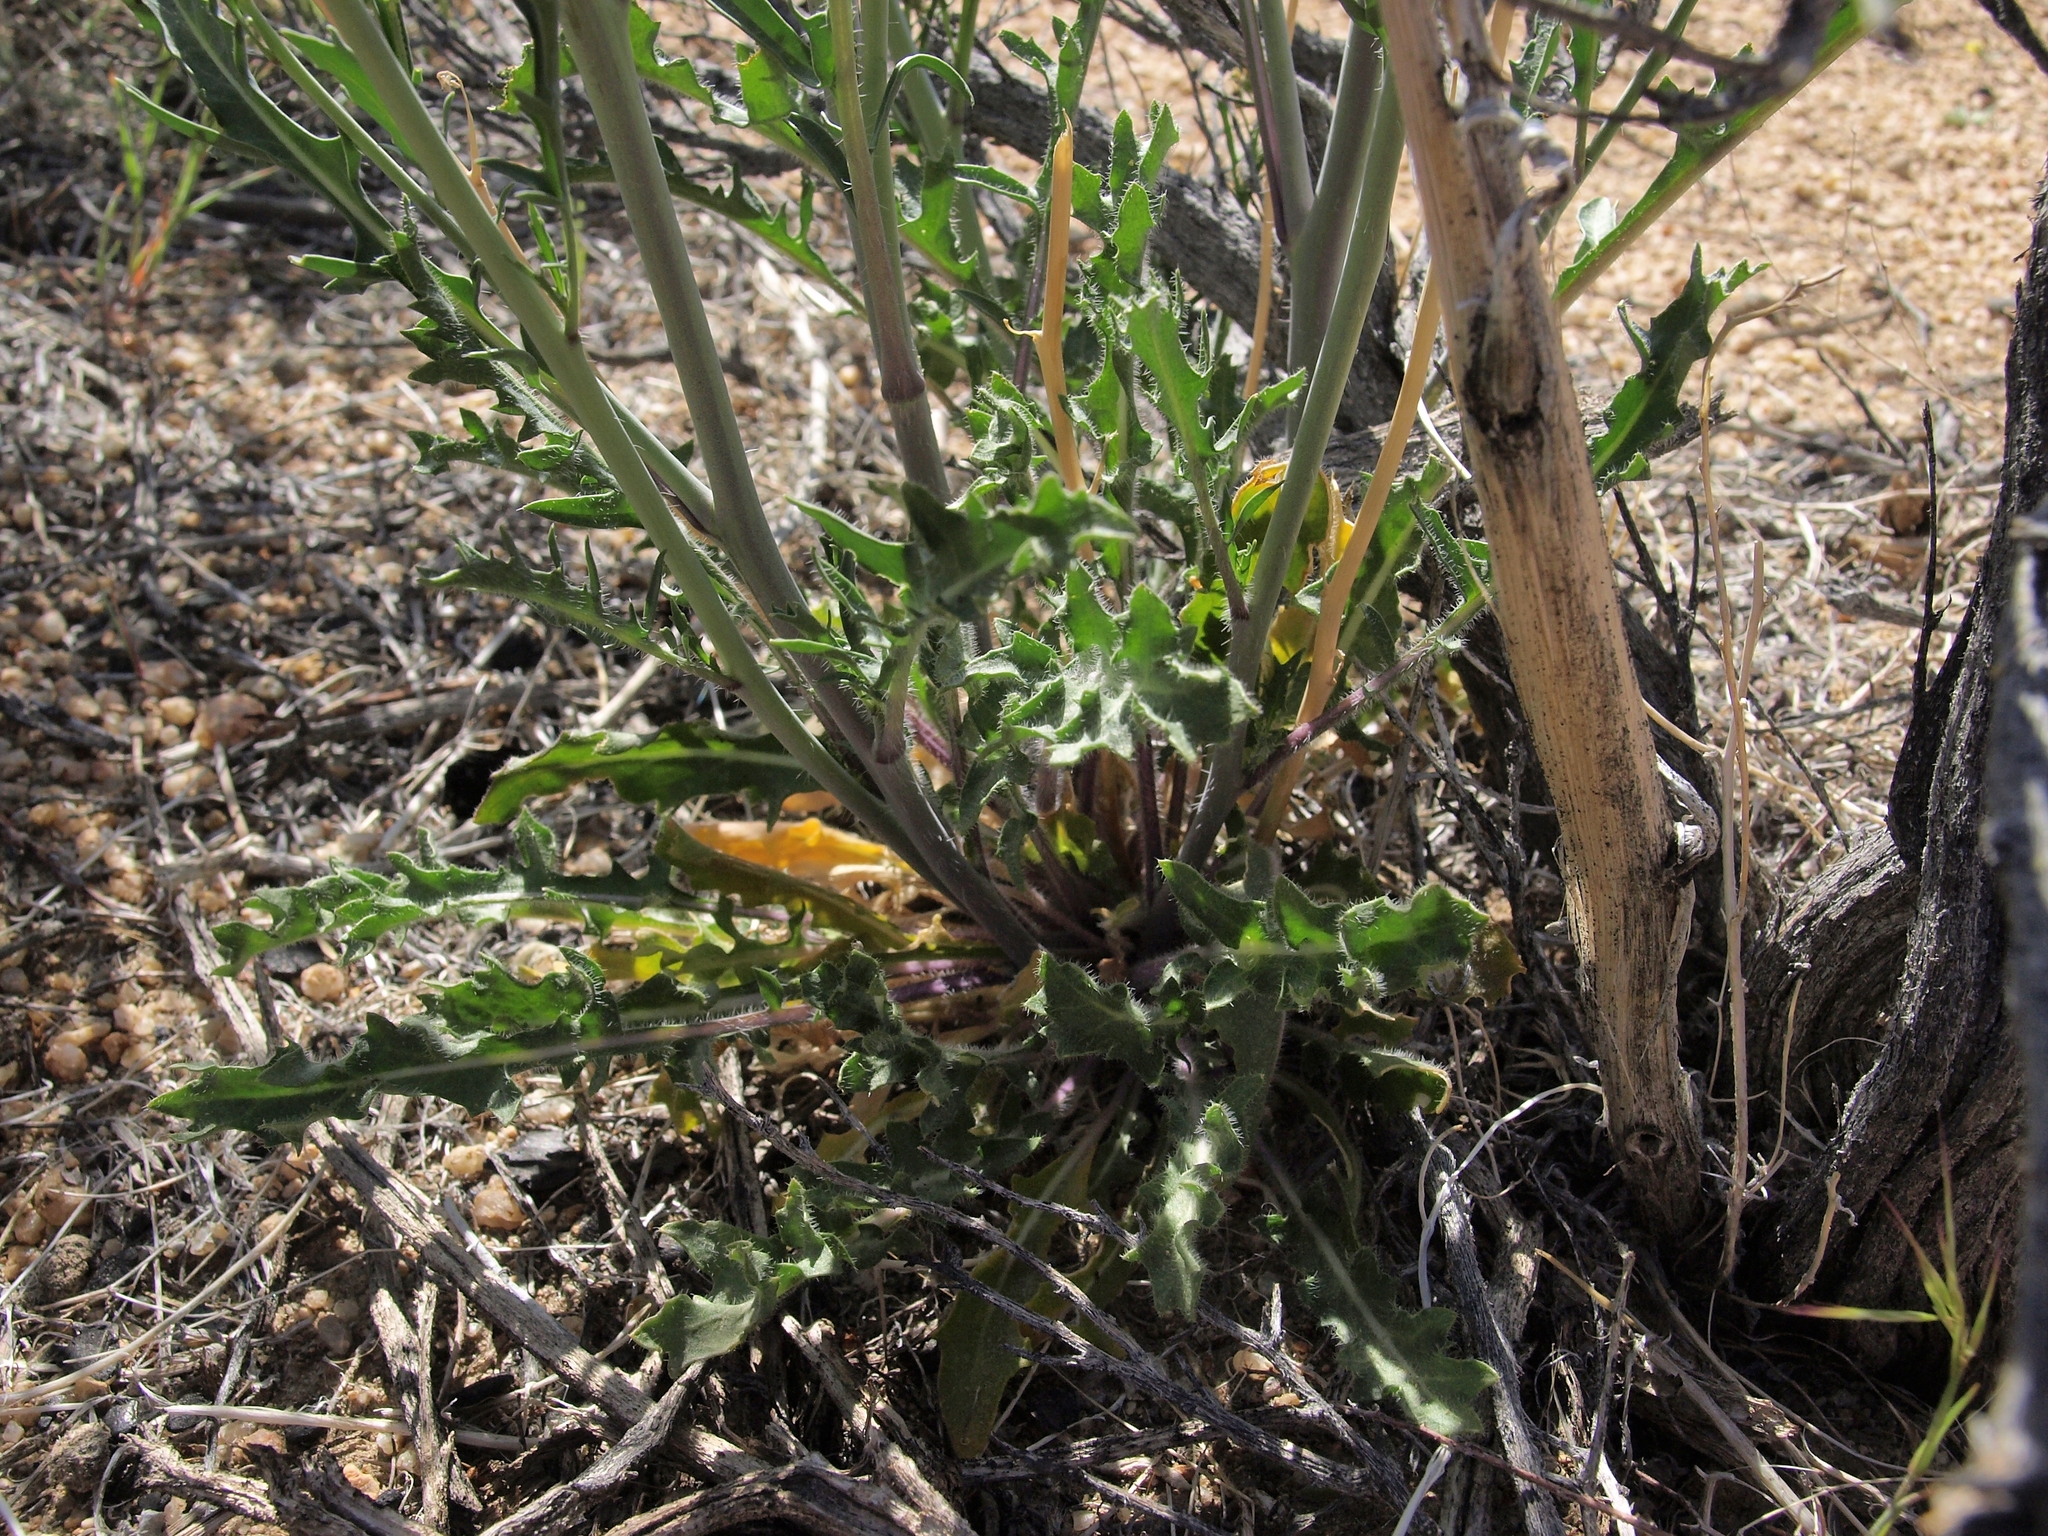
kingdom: Plantae
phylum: Tracheophyta
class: Magnoliopsida
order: Brassicales
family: Brassicaceae
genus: Streptanthus
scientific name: Streptanthus pilosus
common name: Chocolate drops
